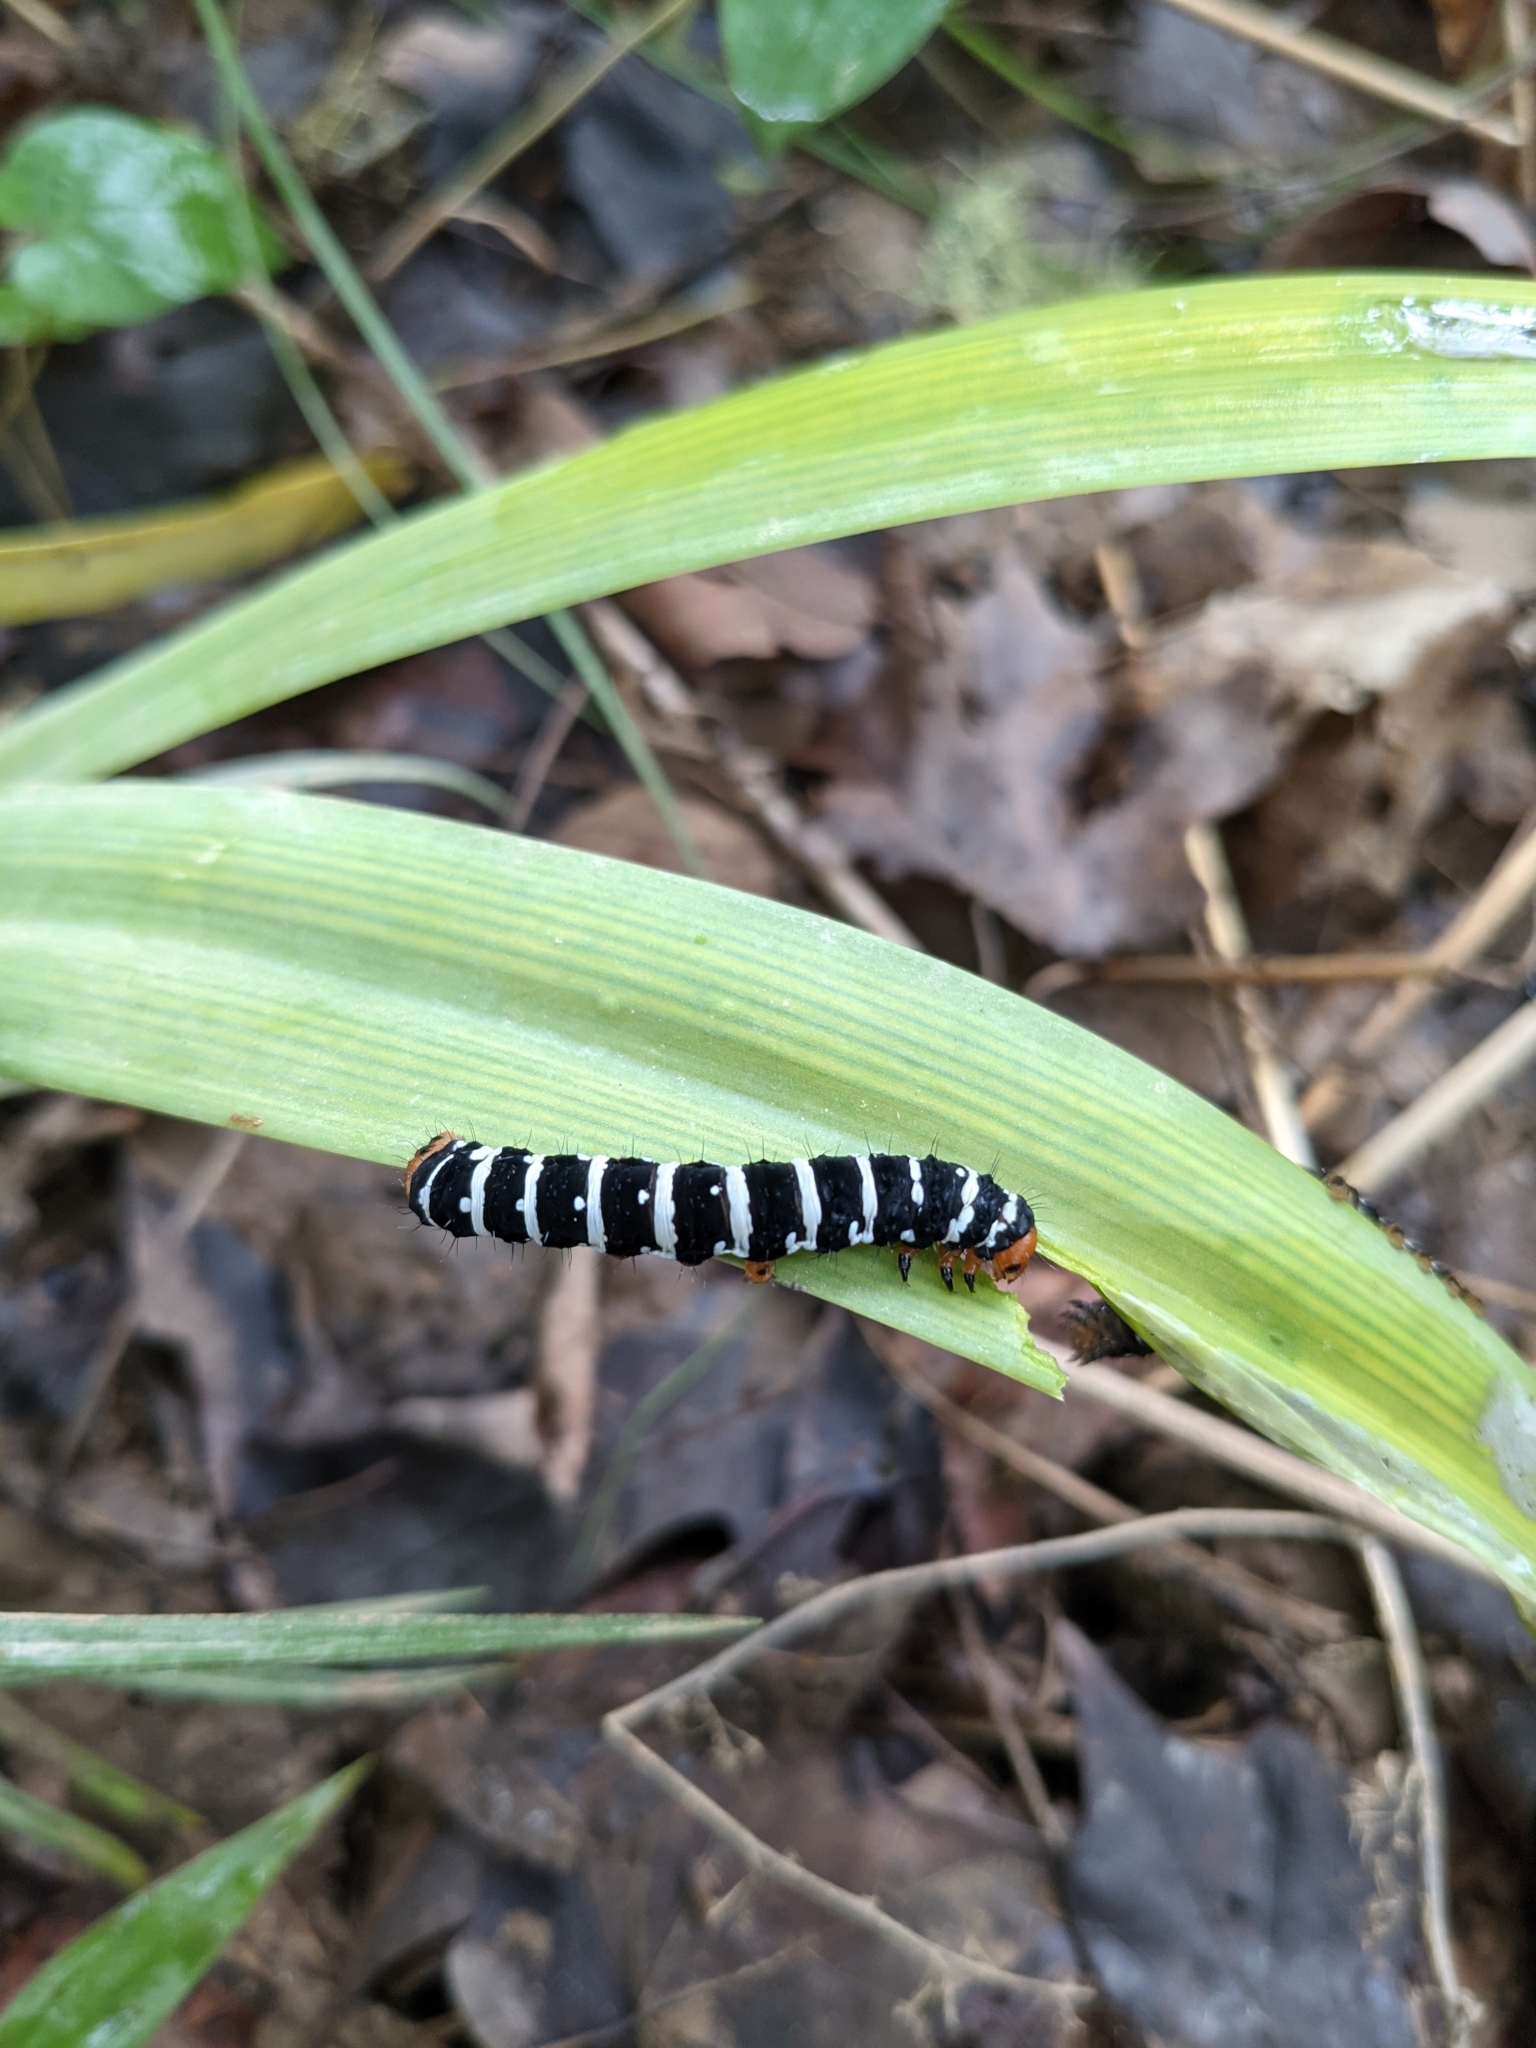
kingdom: Animalia
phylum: Arthropoda
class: Insecta
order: Lepidoptera
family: Noctuidae
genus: Xanthopastis
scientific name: Xanthopastis regnatrix
